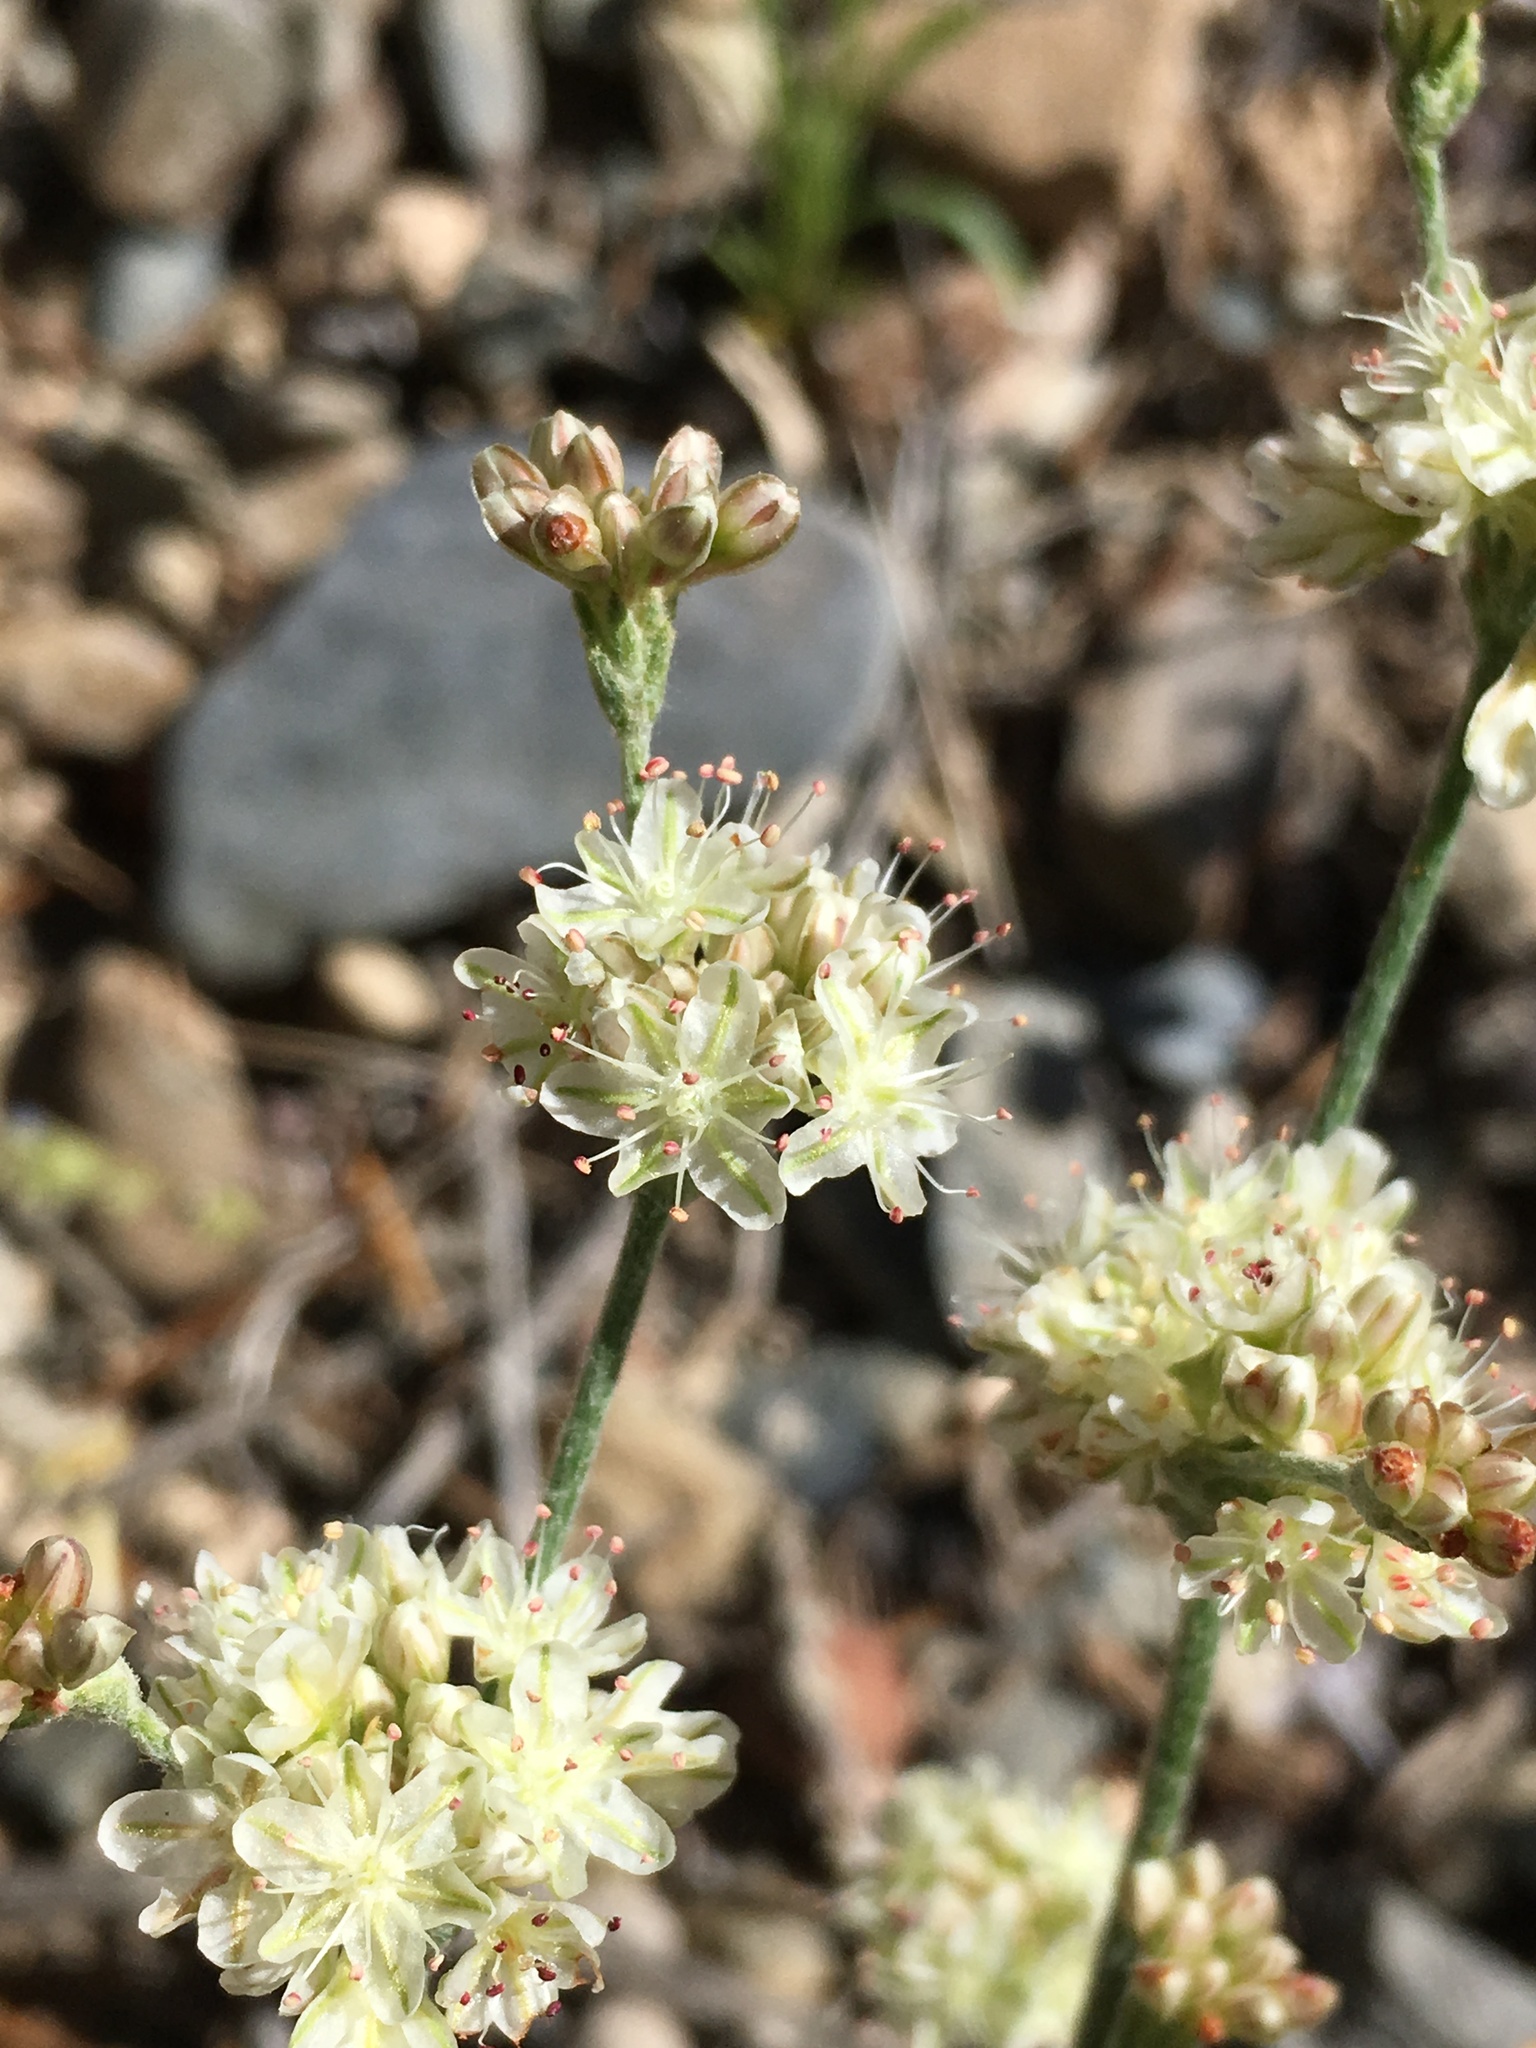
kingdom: Plantae
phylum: Tracheophyta
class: Magnoliopsida
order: Caryophyllales
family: Polygonaceae
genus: Eriogonum
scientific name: Eriogonum saxatile
